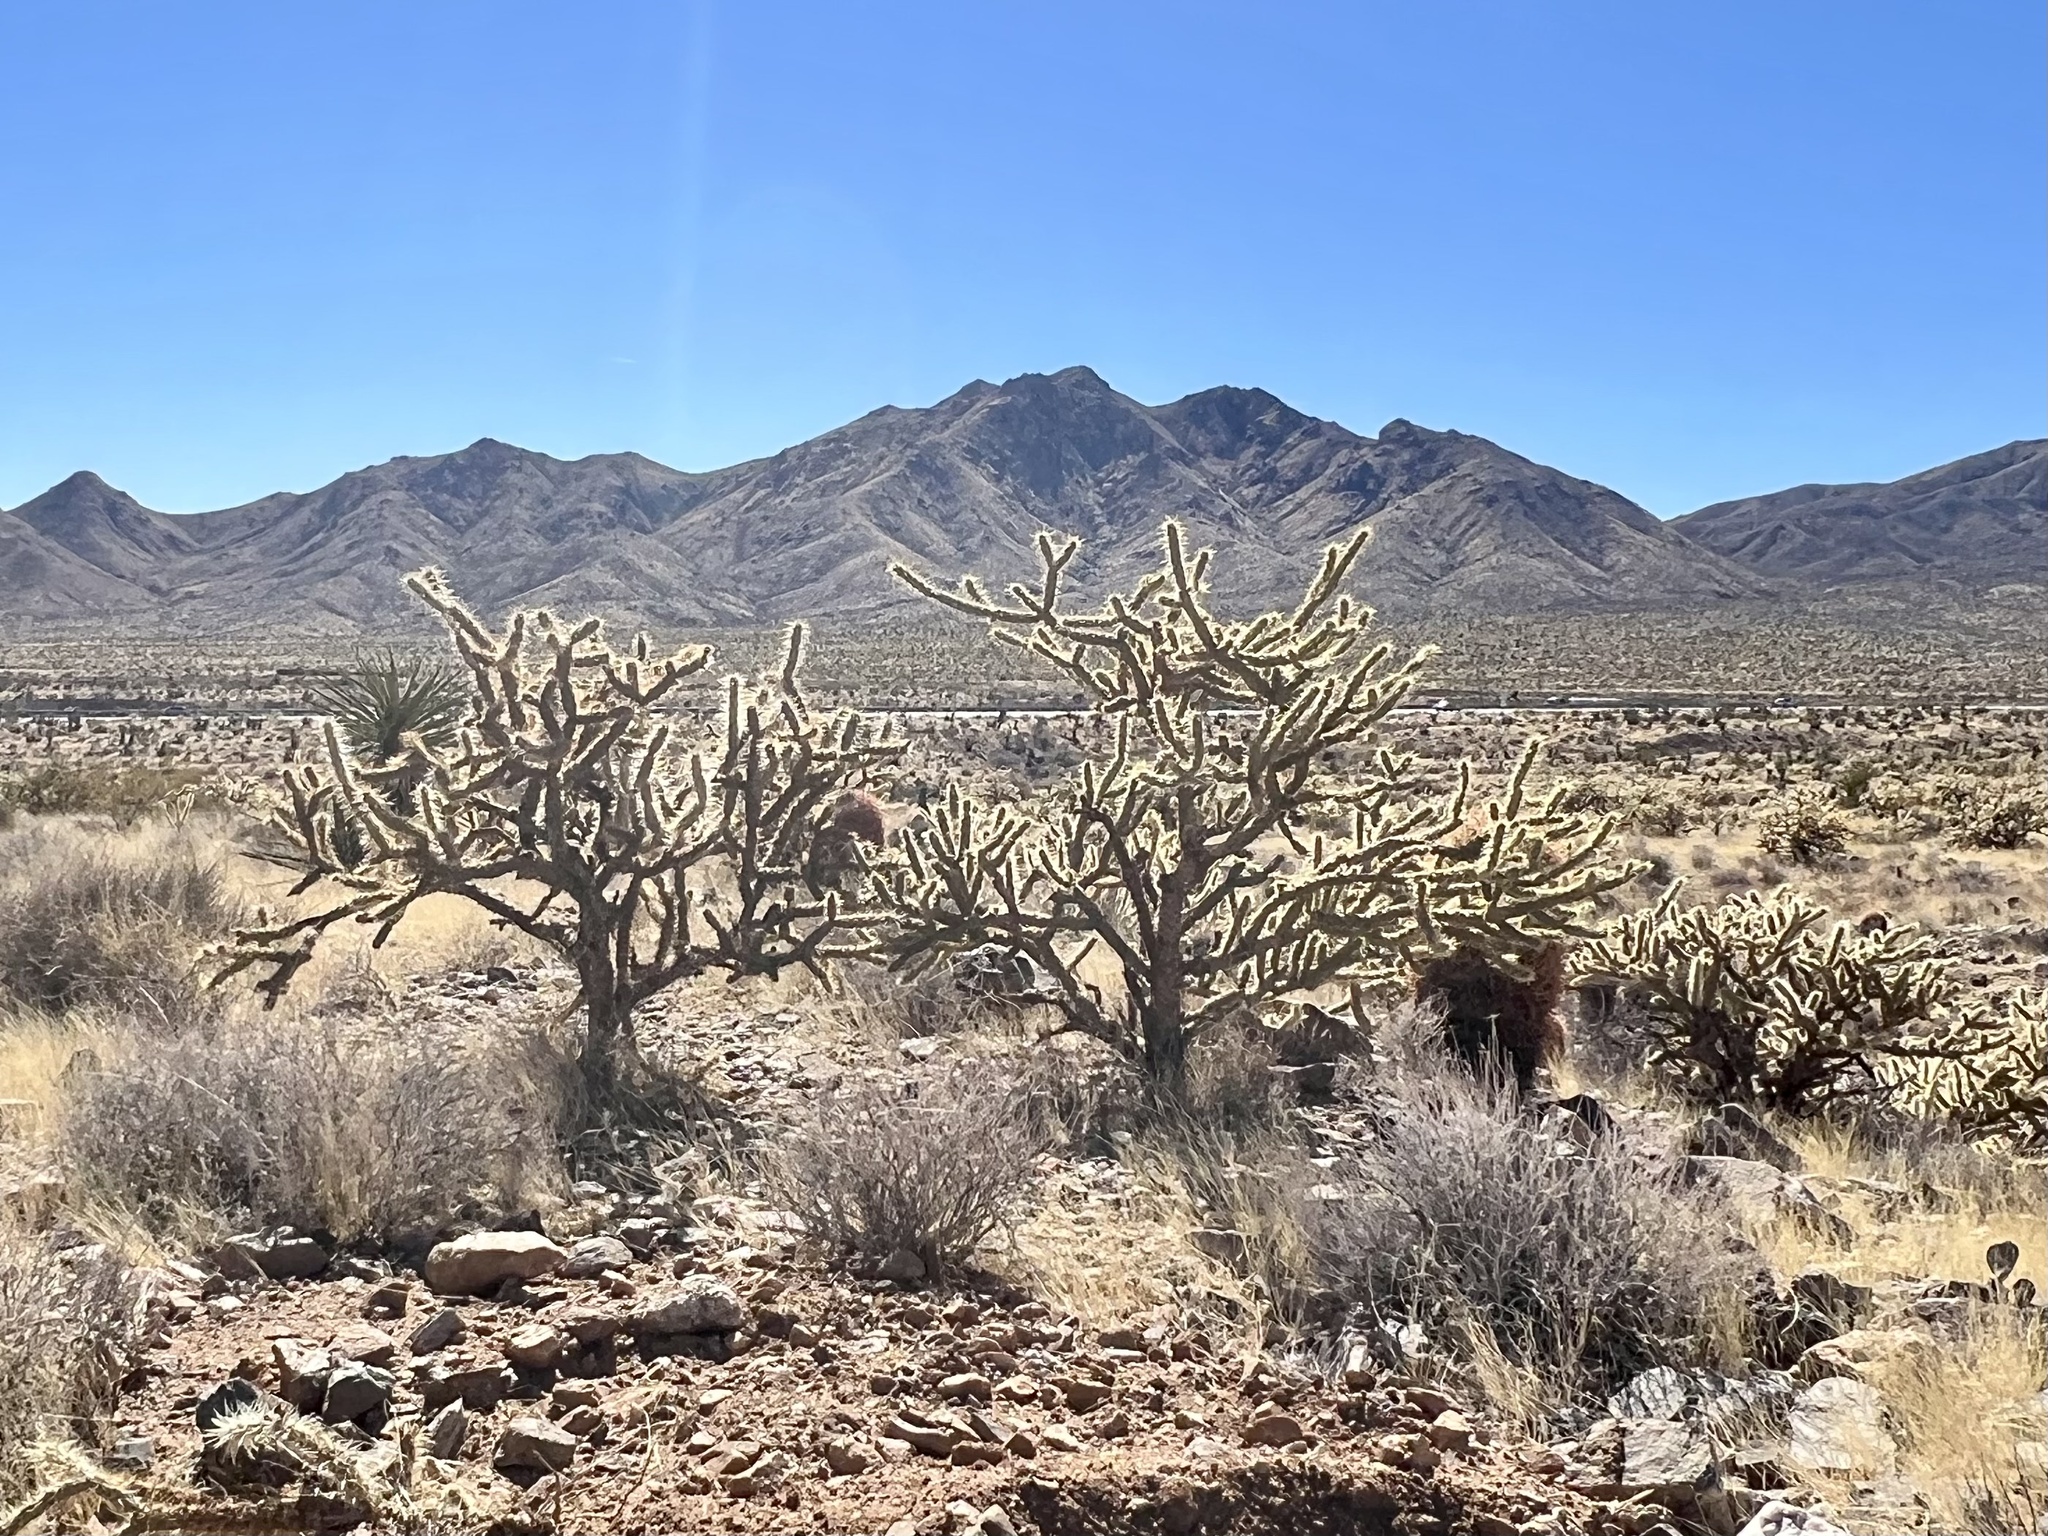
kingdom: Plantae
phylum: Tracheophyta
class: Magnoliopsida
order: Caryophyllales
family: Cactaceae
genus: Cylindropuntia
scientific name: Cylindropuntia acanthocarpa
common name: Buckhorn cholla
